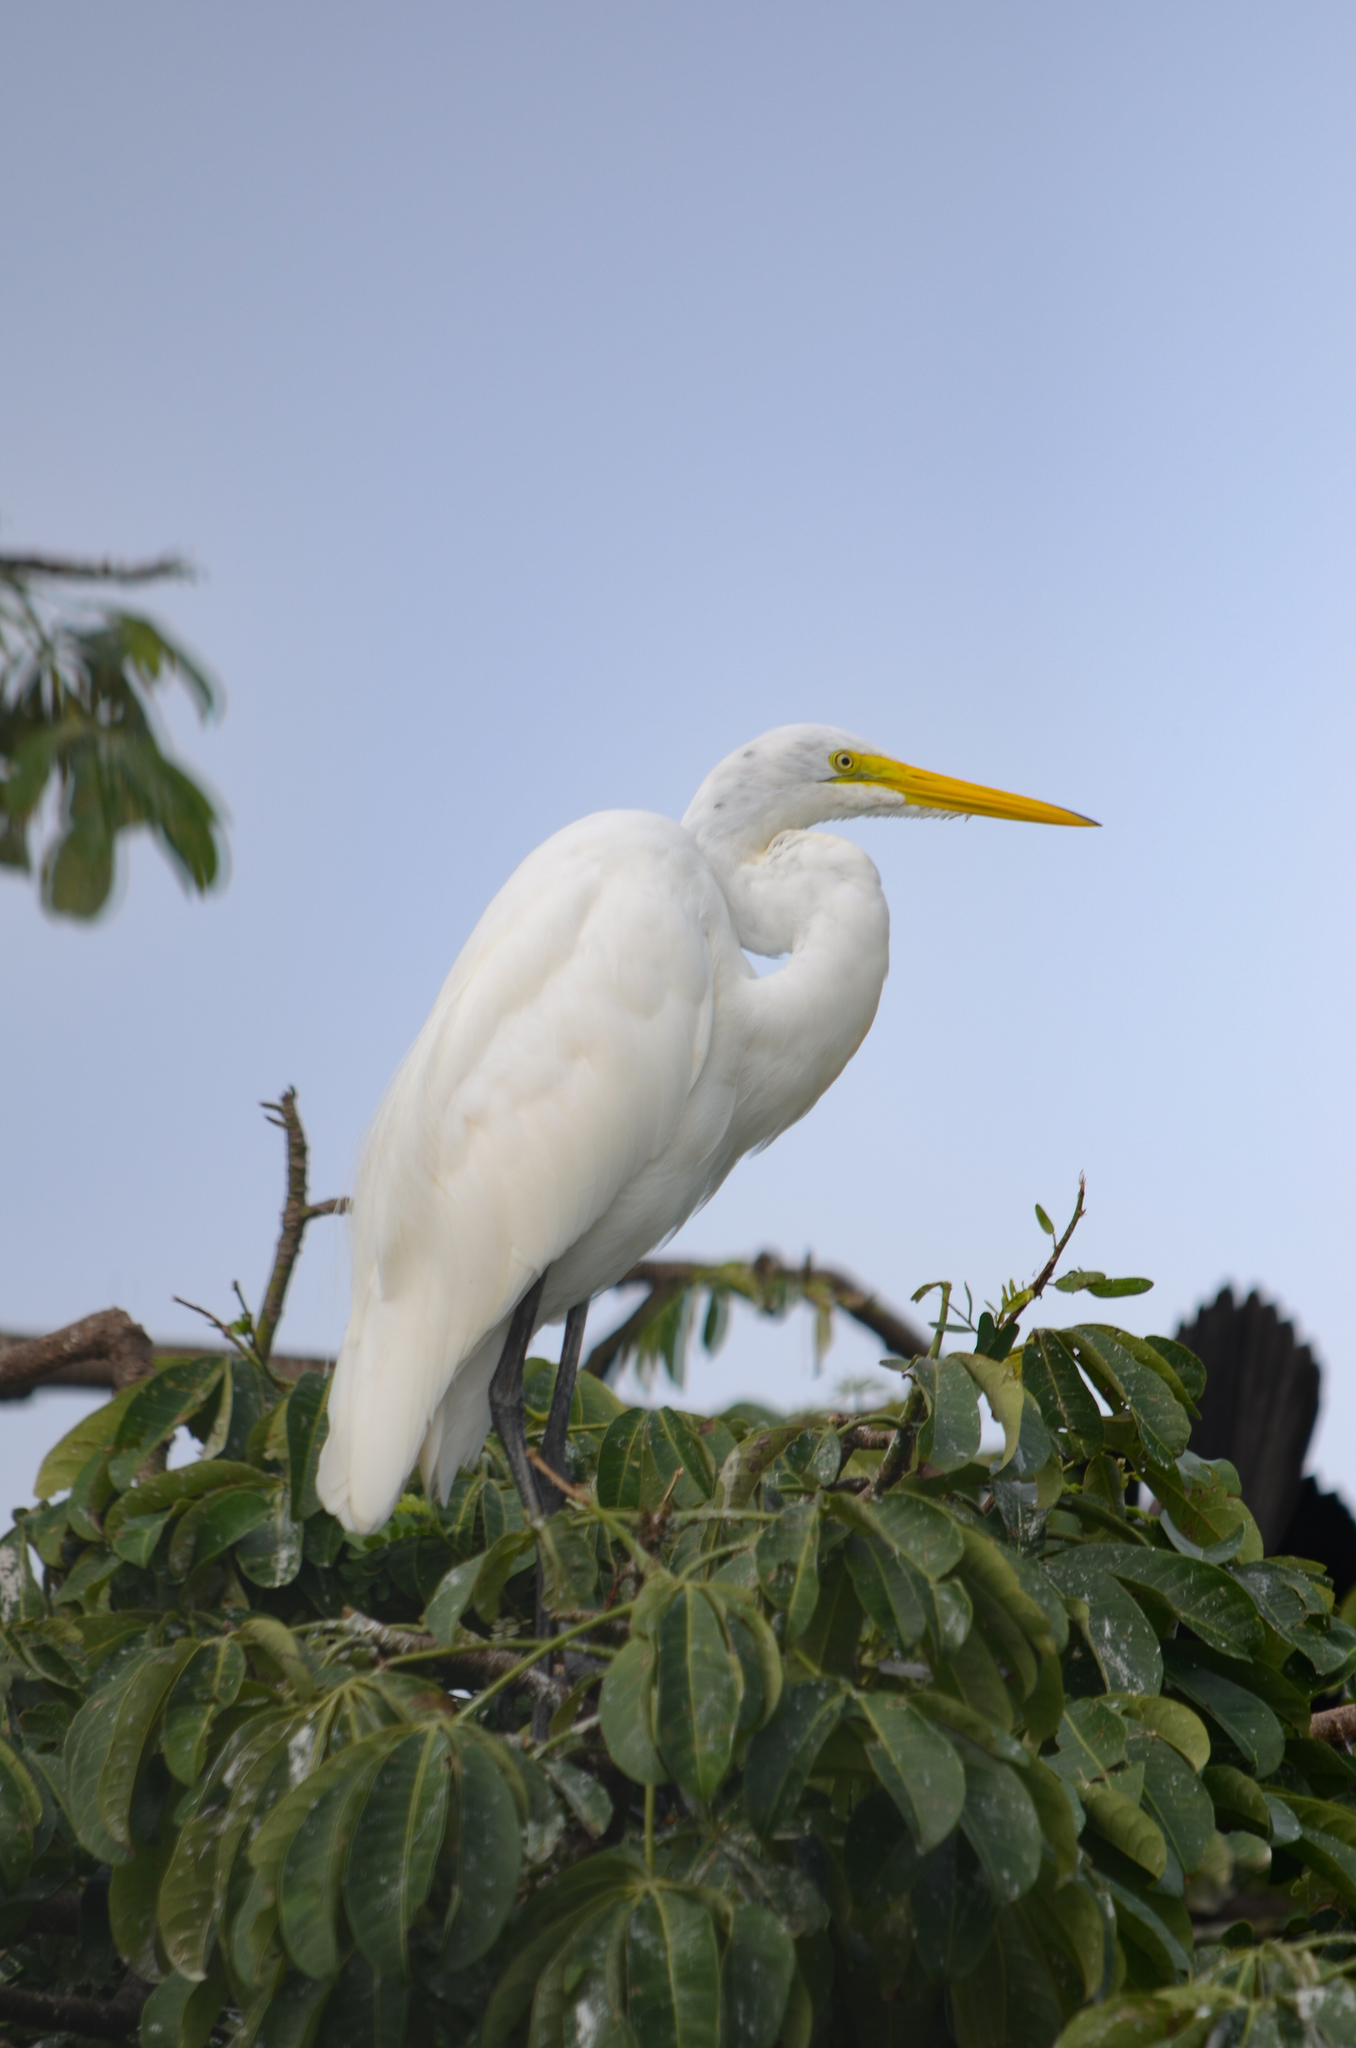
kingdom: Animalia
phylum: Chordata
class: Aves
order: Pelecaniformes
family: Ardeidae
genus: Ardea
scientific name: Ardea alba
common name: Great egret
